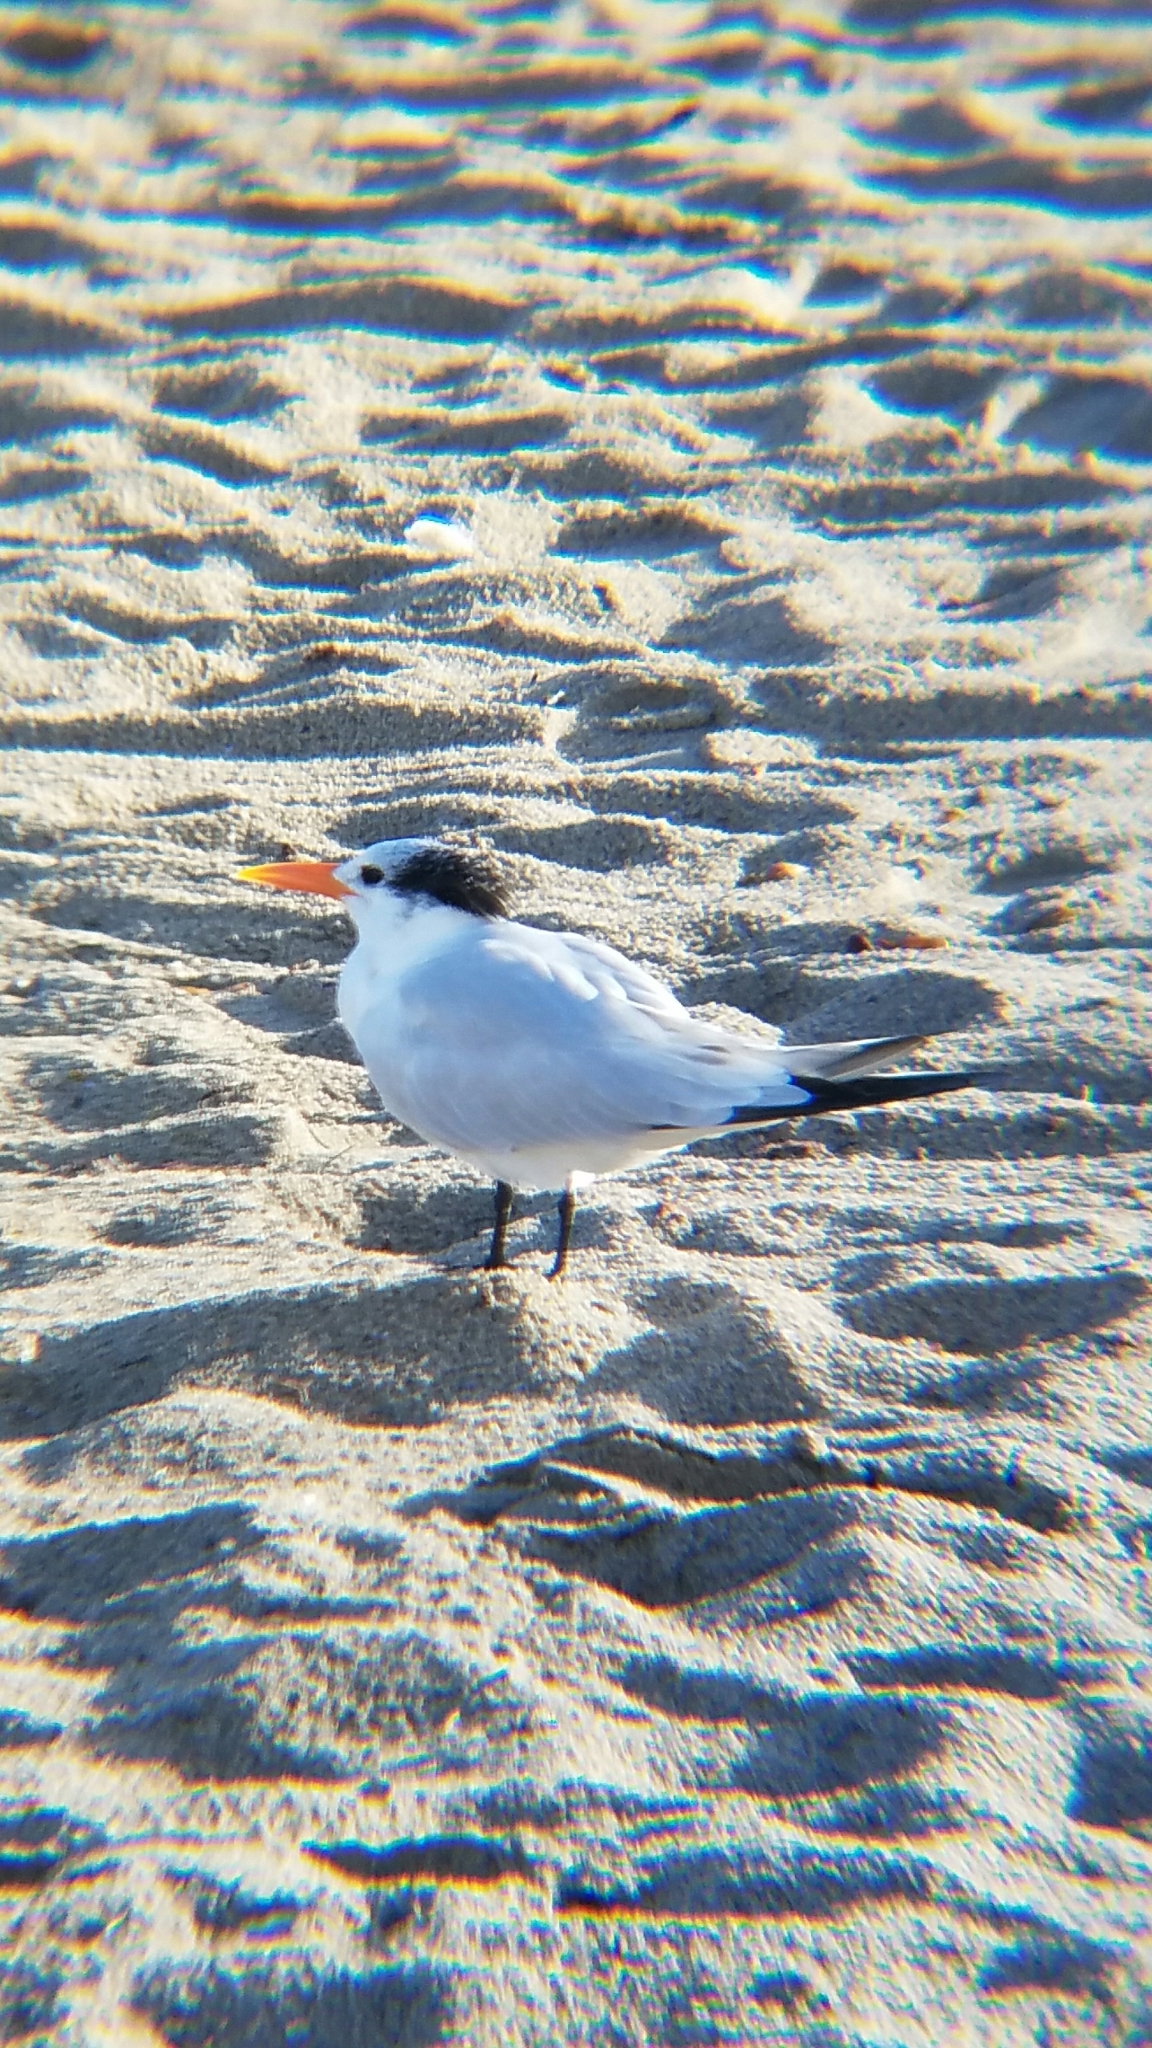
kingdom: Animalia
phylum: Chordata
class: Aves
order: Charadriiformes
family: Laridae
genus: Thalasseus
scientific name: Thalasseus maximus
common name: Royal tern
